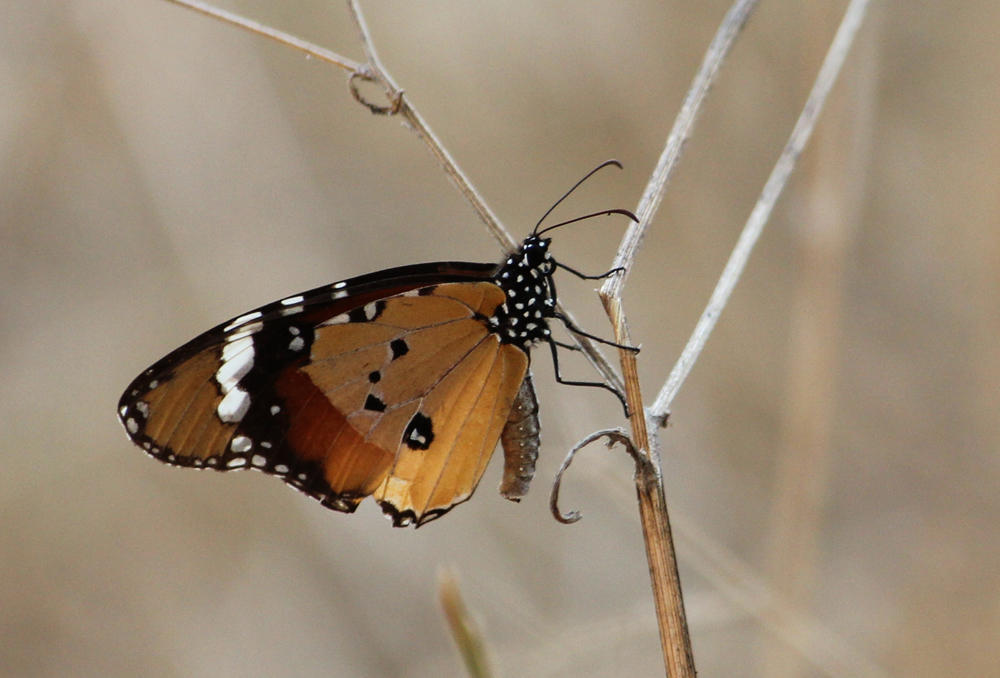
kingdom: Animalia
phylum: Arthropoda
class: Insecta
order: Lepidoptera
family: Nymphalidae
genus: Danaus
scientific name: Danaus chrysippus
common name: Plain tiger
